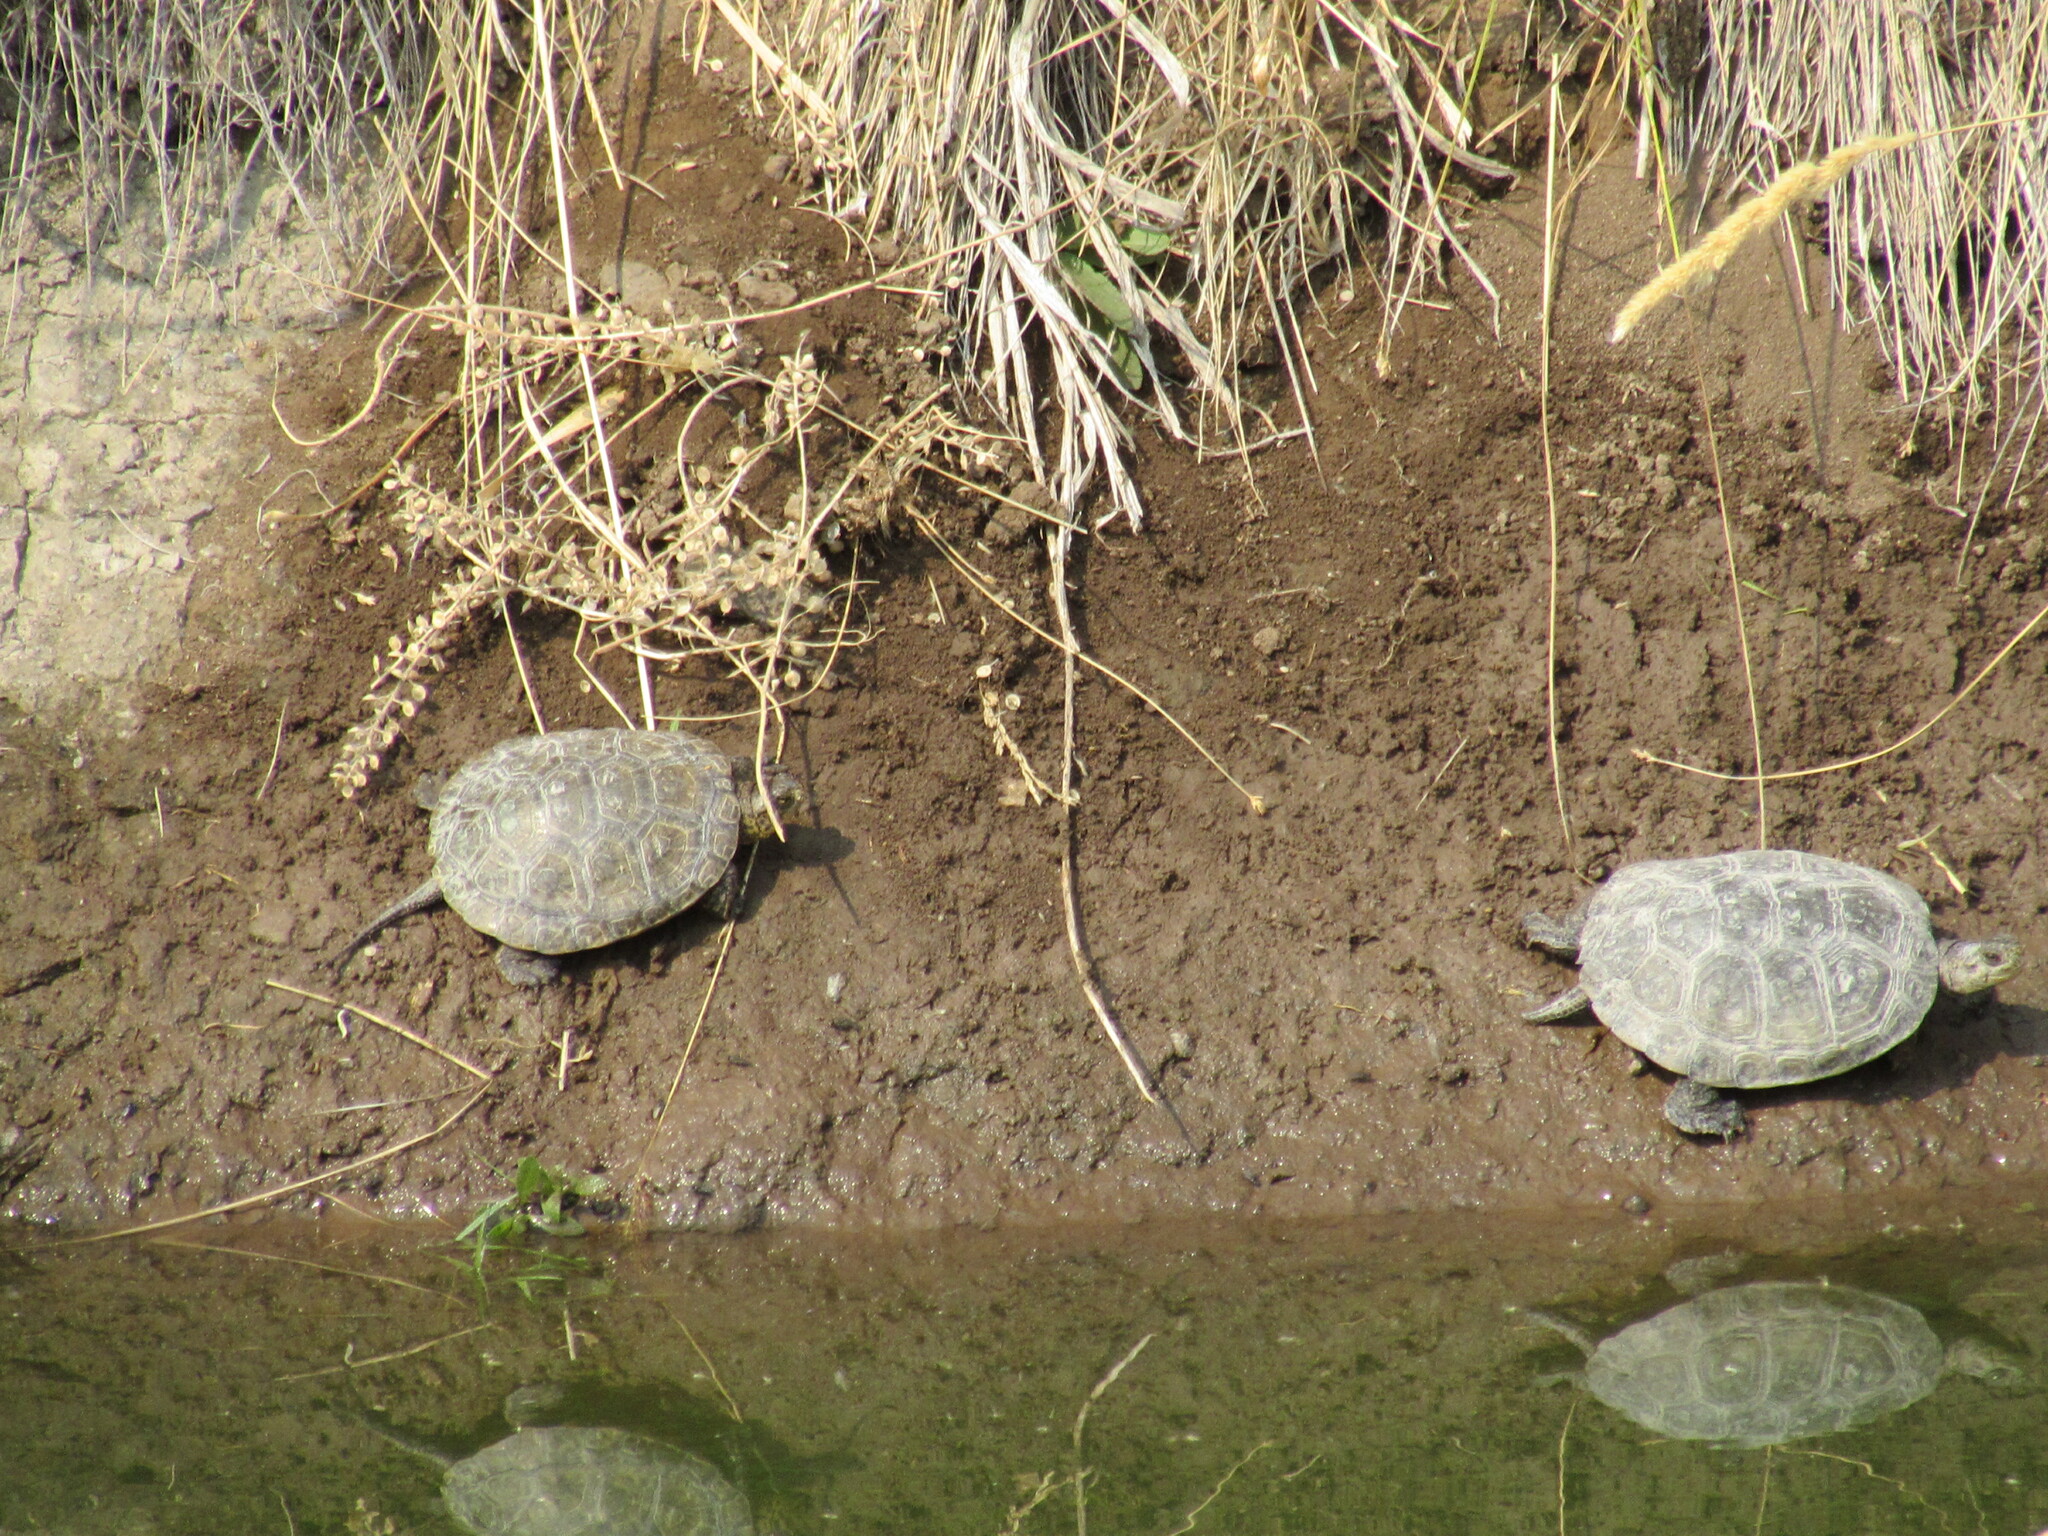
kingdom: Animalia
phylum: Chordata
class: Testudines
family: Emydidae
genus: Actinemys
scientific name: Actinemys marmorata
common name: Western pond turtle
